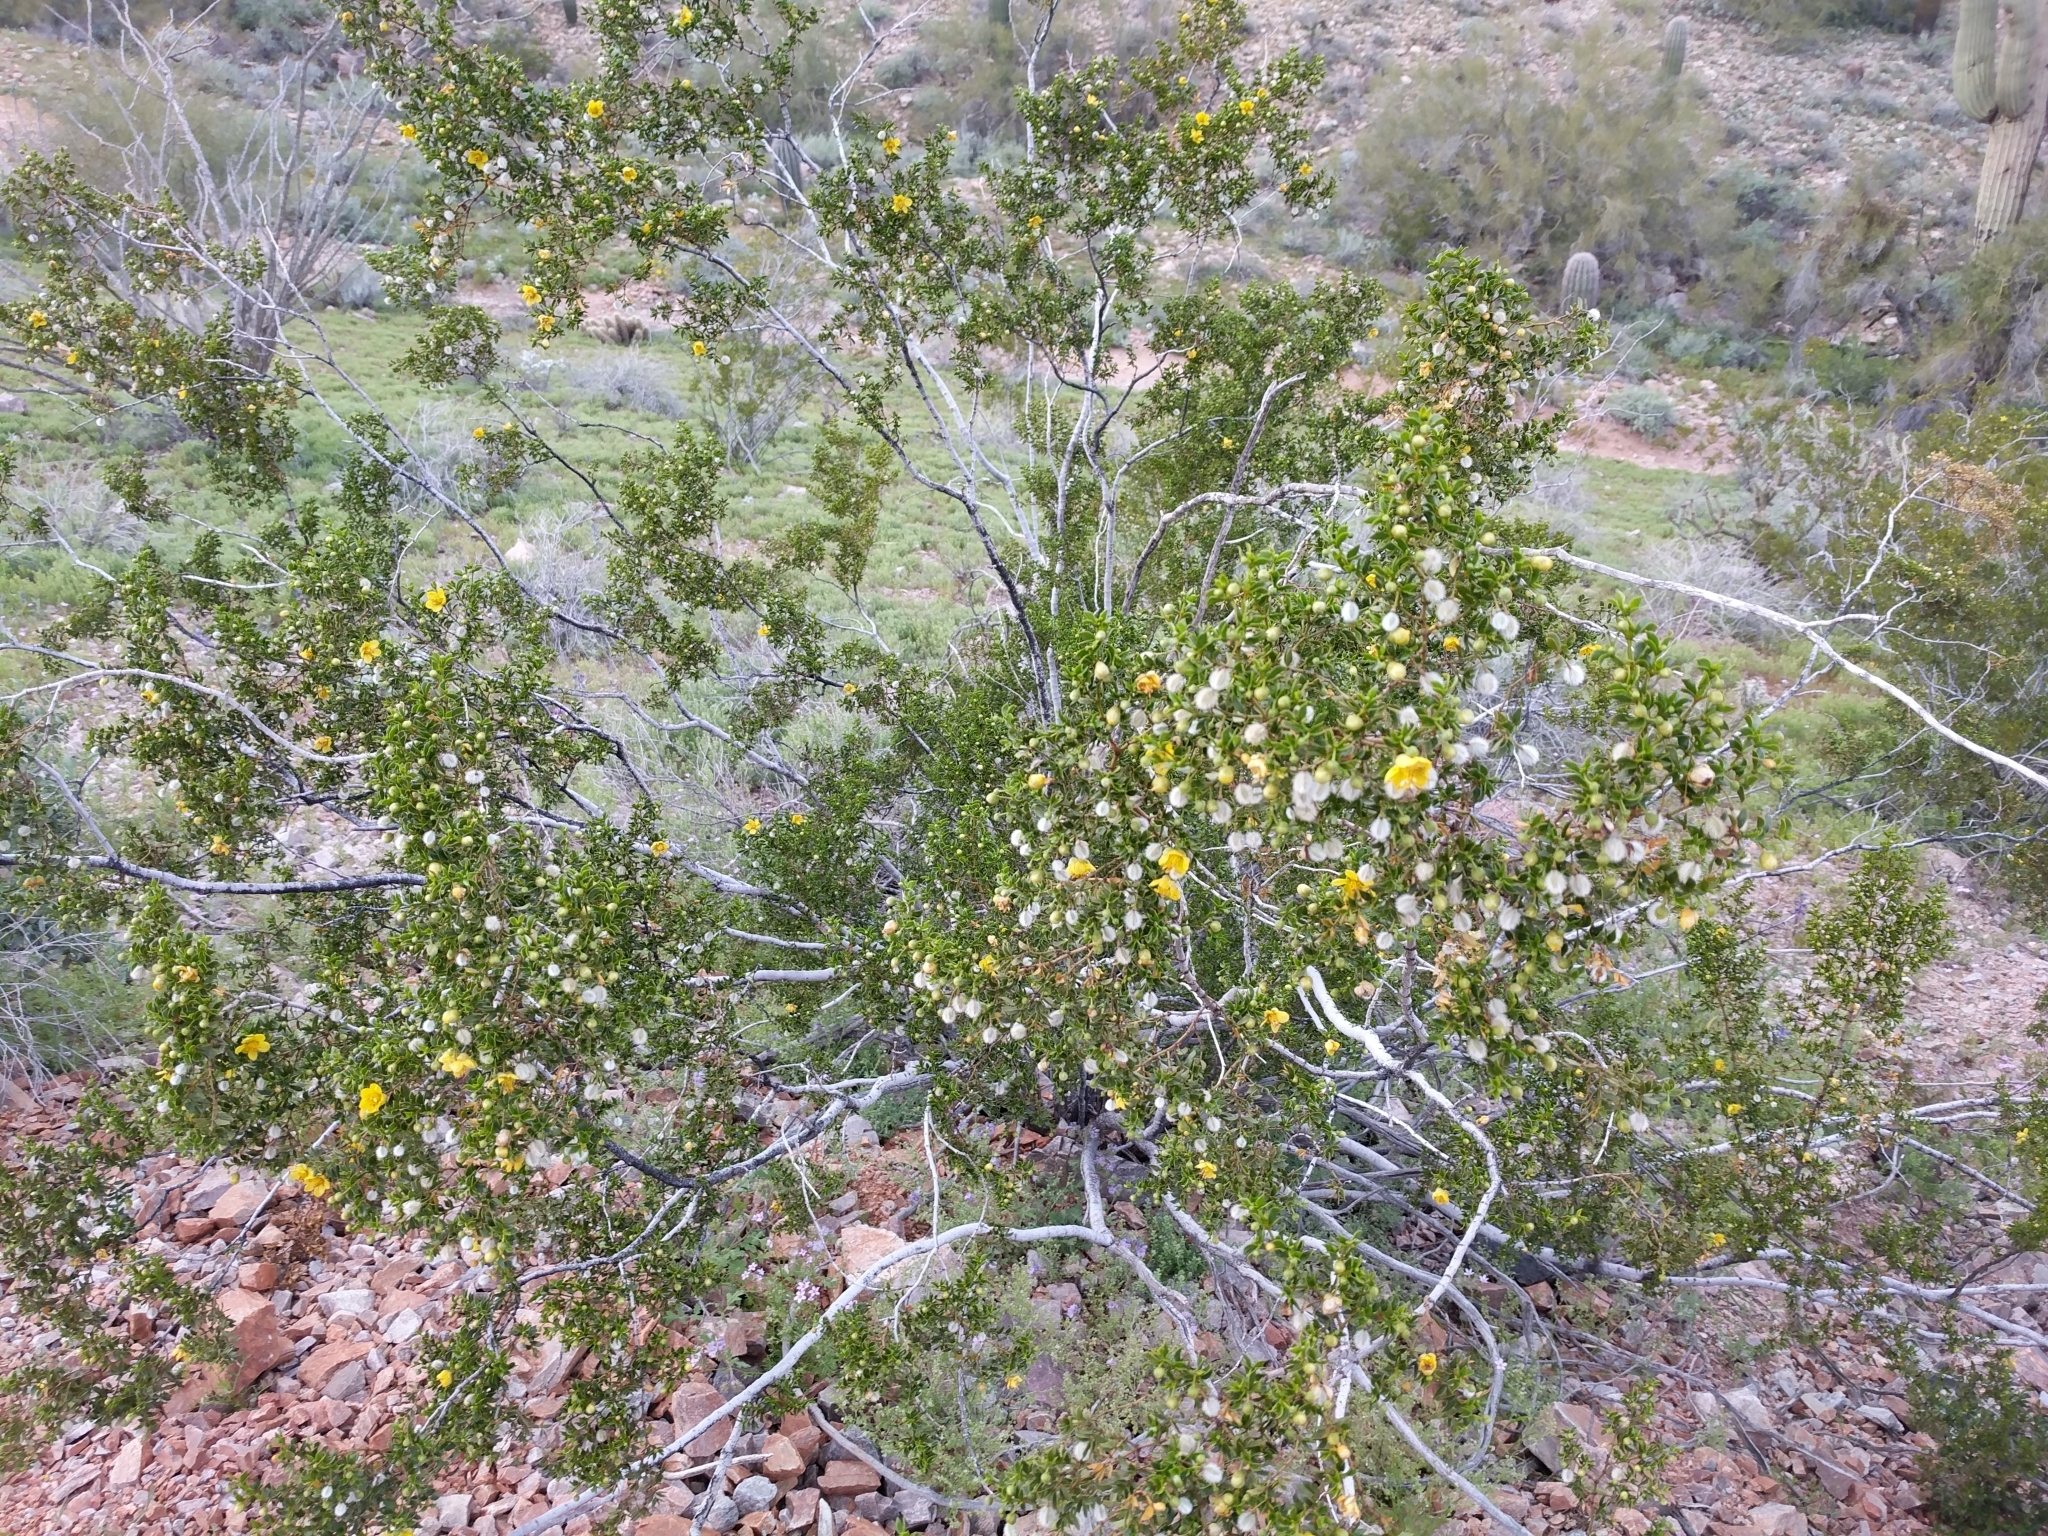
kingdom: Plantae
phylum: Tracheophyta
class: Magnoliopsida
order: Zygophyllales
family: Zygophyllaceae
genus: Larrea
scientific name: Larrea tridentata
